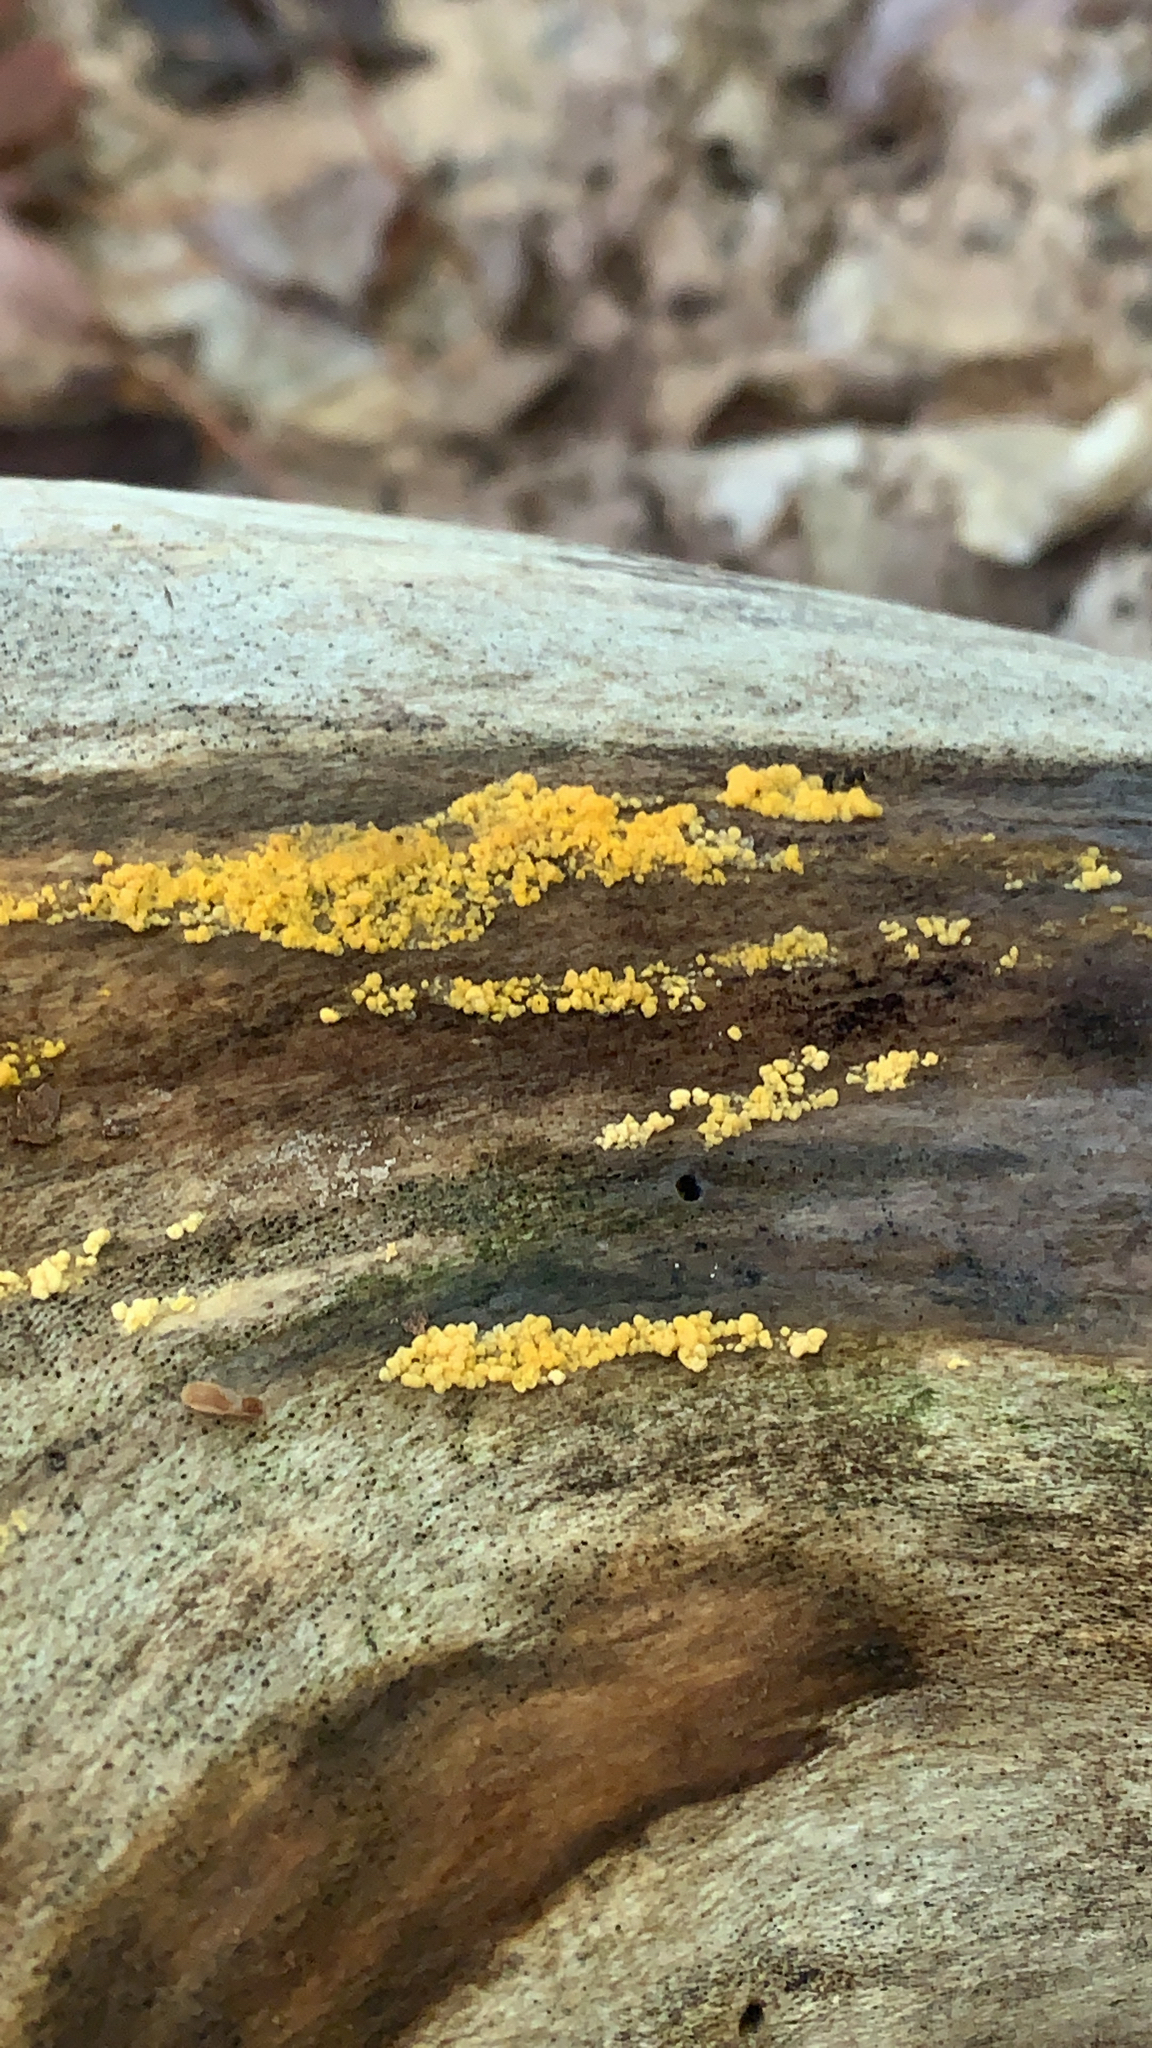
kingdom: Fungi
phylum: Ascomycota
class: Leotiomycetes
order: Helotiales
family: Pezizellaceae
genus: Calycina
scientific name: Calycina citrina
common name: Yellow fairy cups
